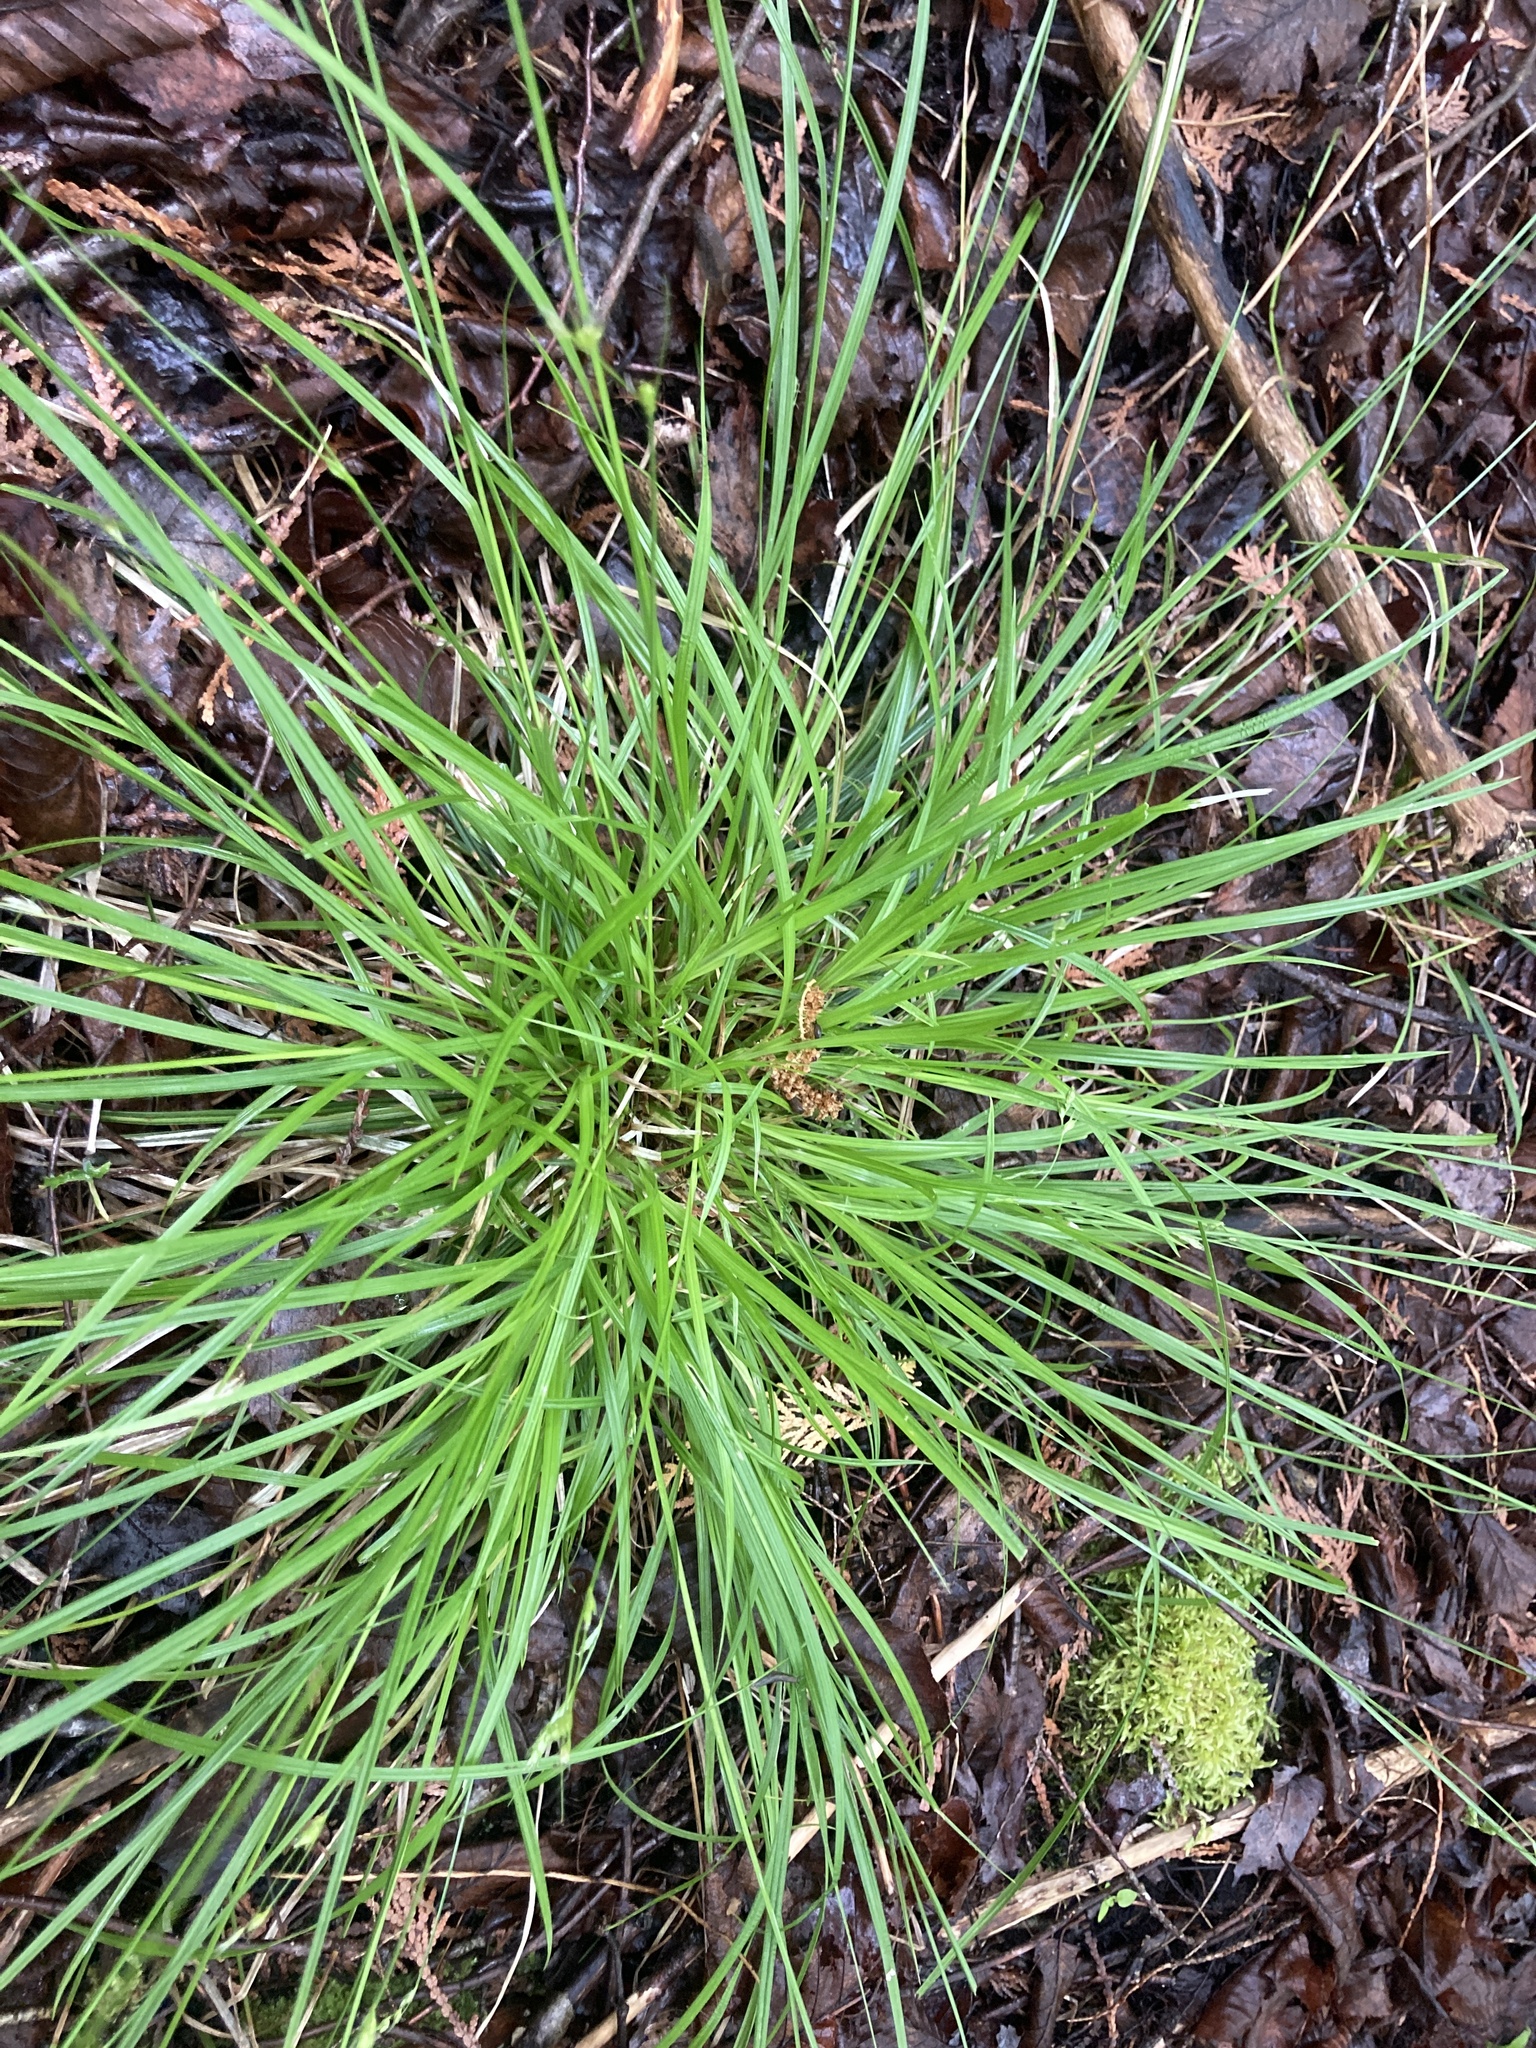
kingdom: Plantae
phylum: Tracheophyta
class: Liliopsida
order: Poales
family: Cyperaceae
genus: Carex
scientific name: Carex deweyana
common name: Dewey's sedge
